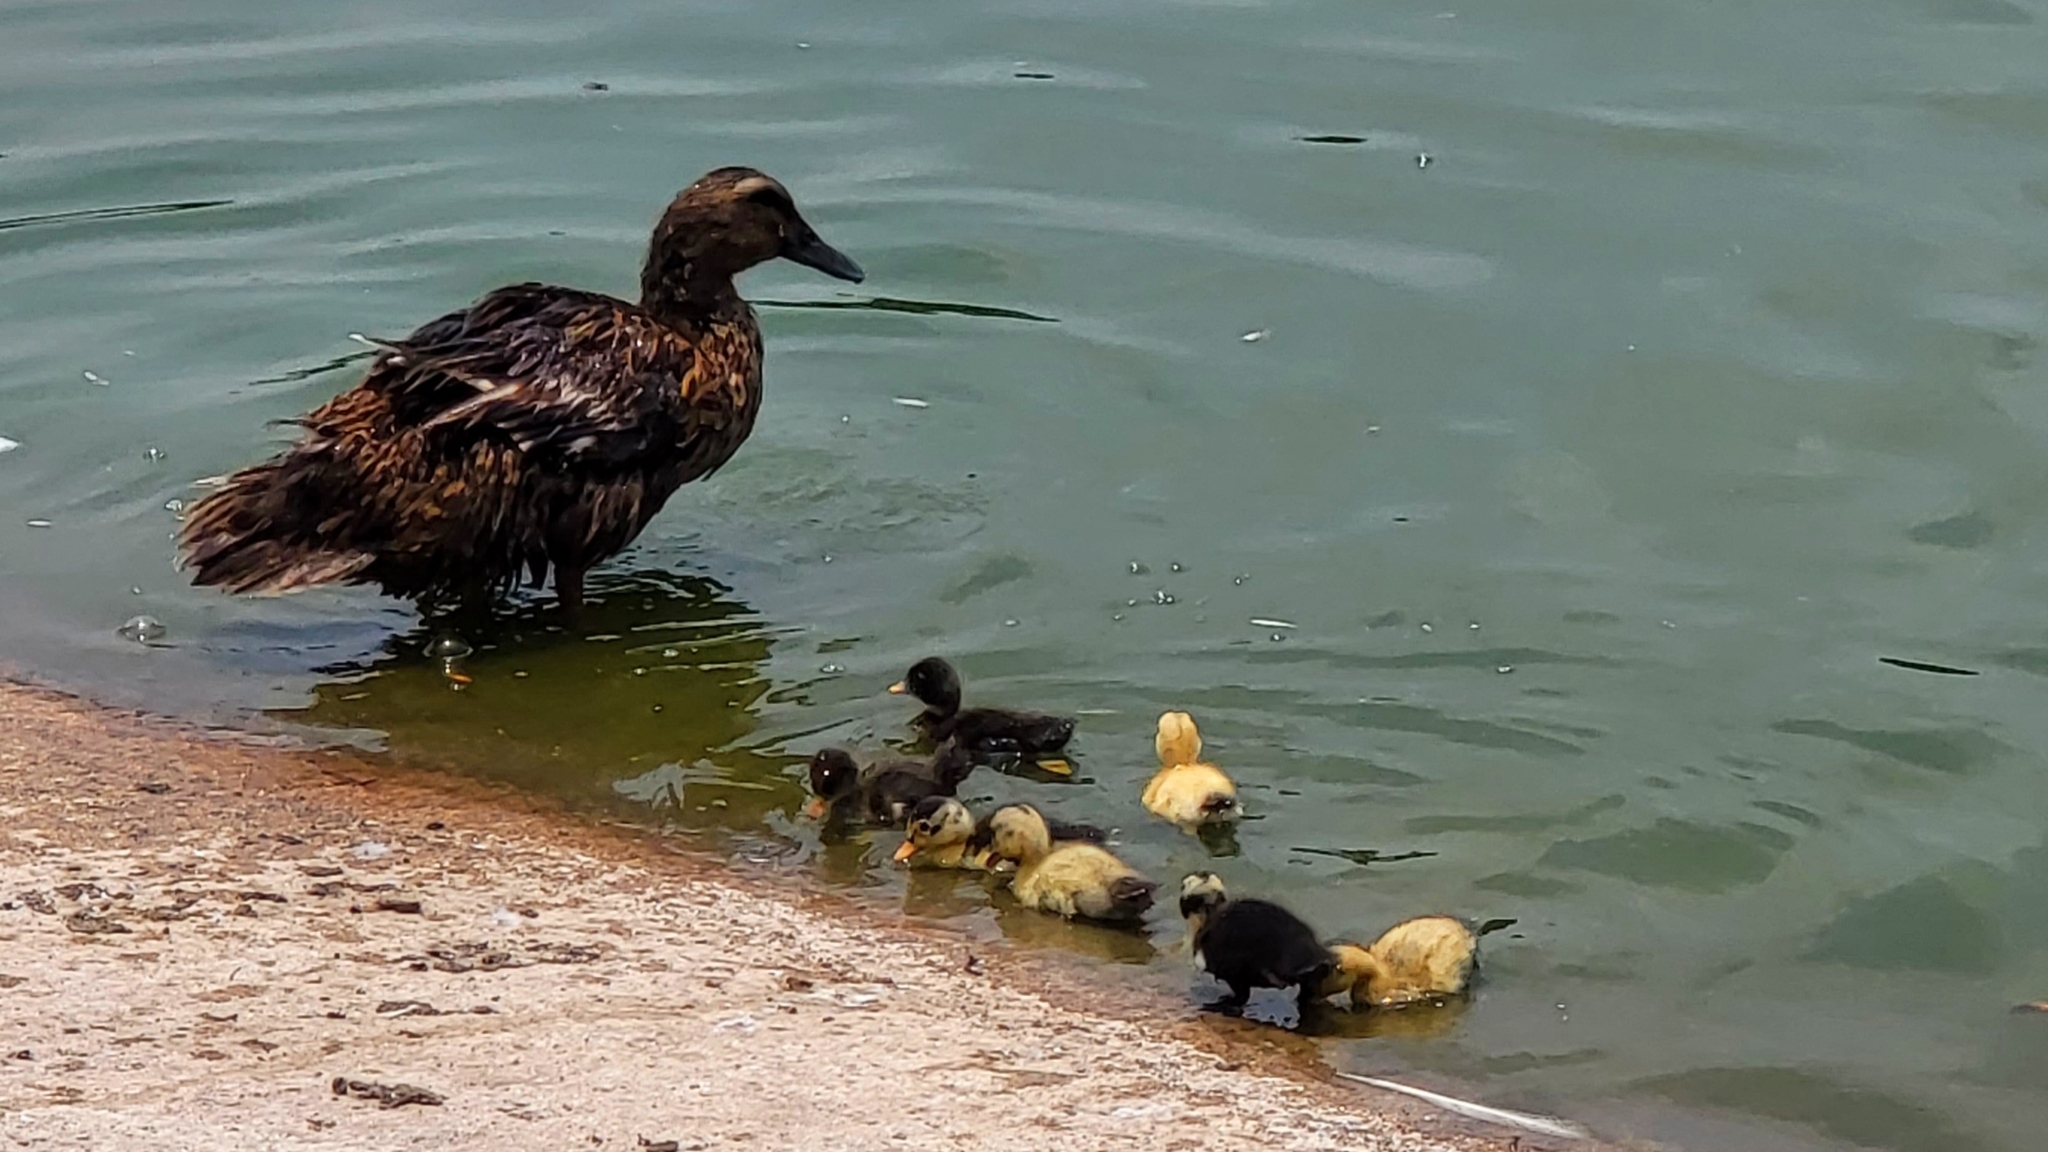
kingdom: Animalia
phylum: Chordata
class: Aves
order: Anseriformes
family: Anatidae
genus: Anas
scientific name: Anas diazi
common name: Mexican duck
